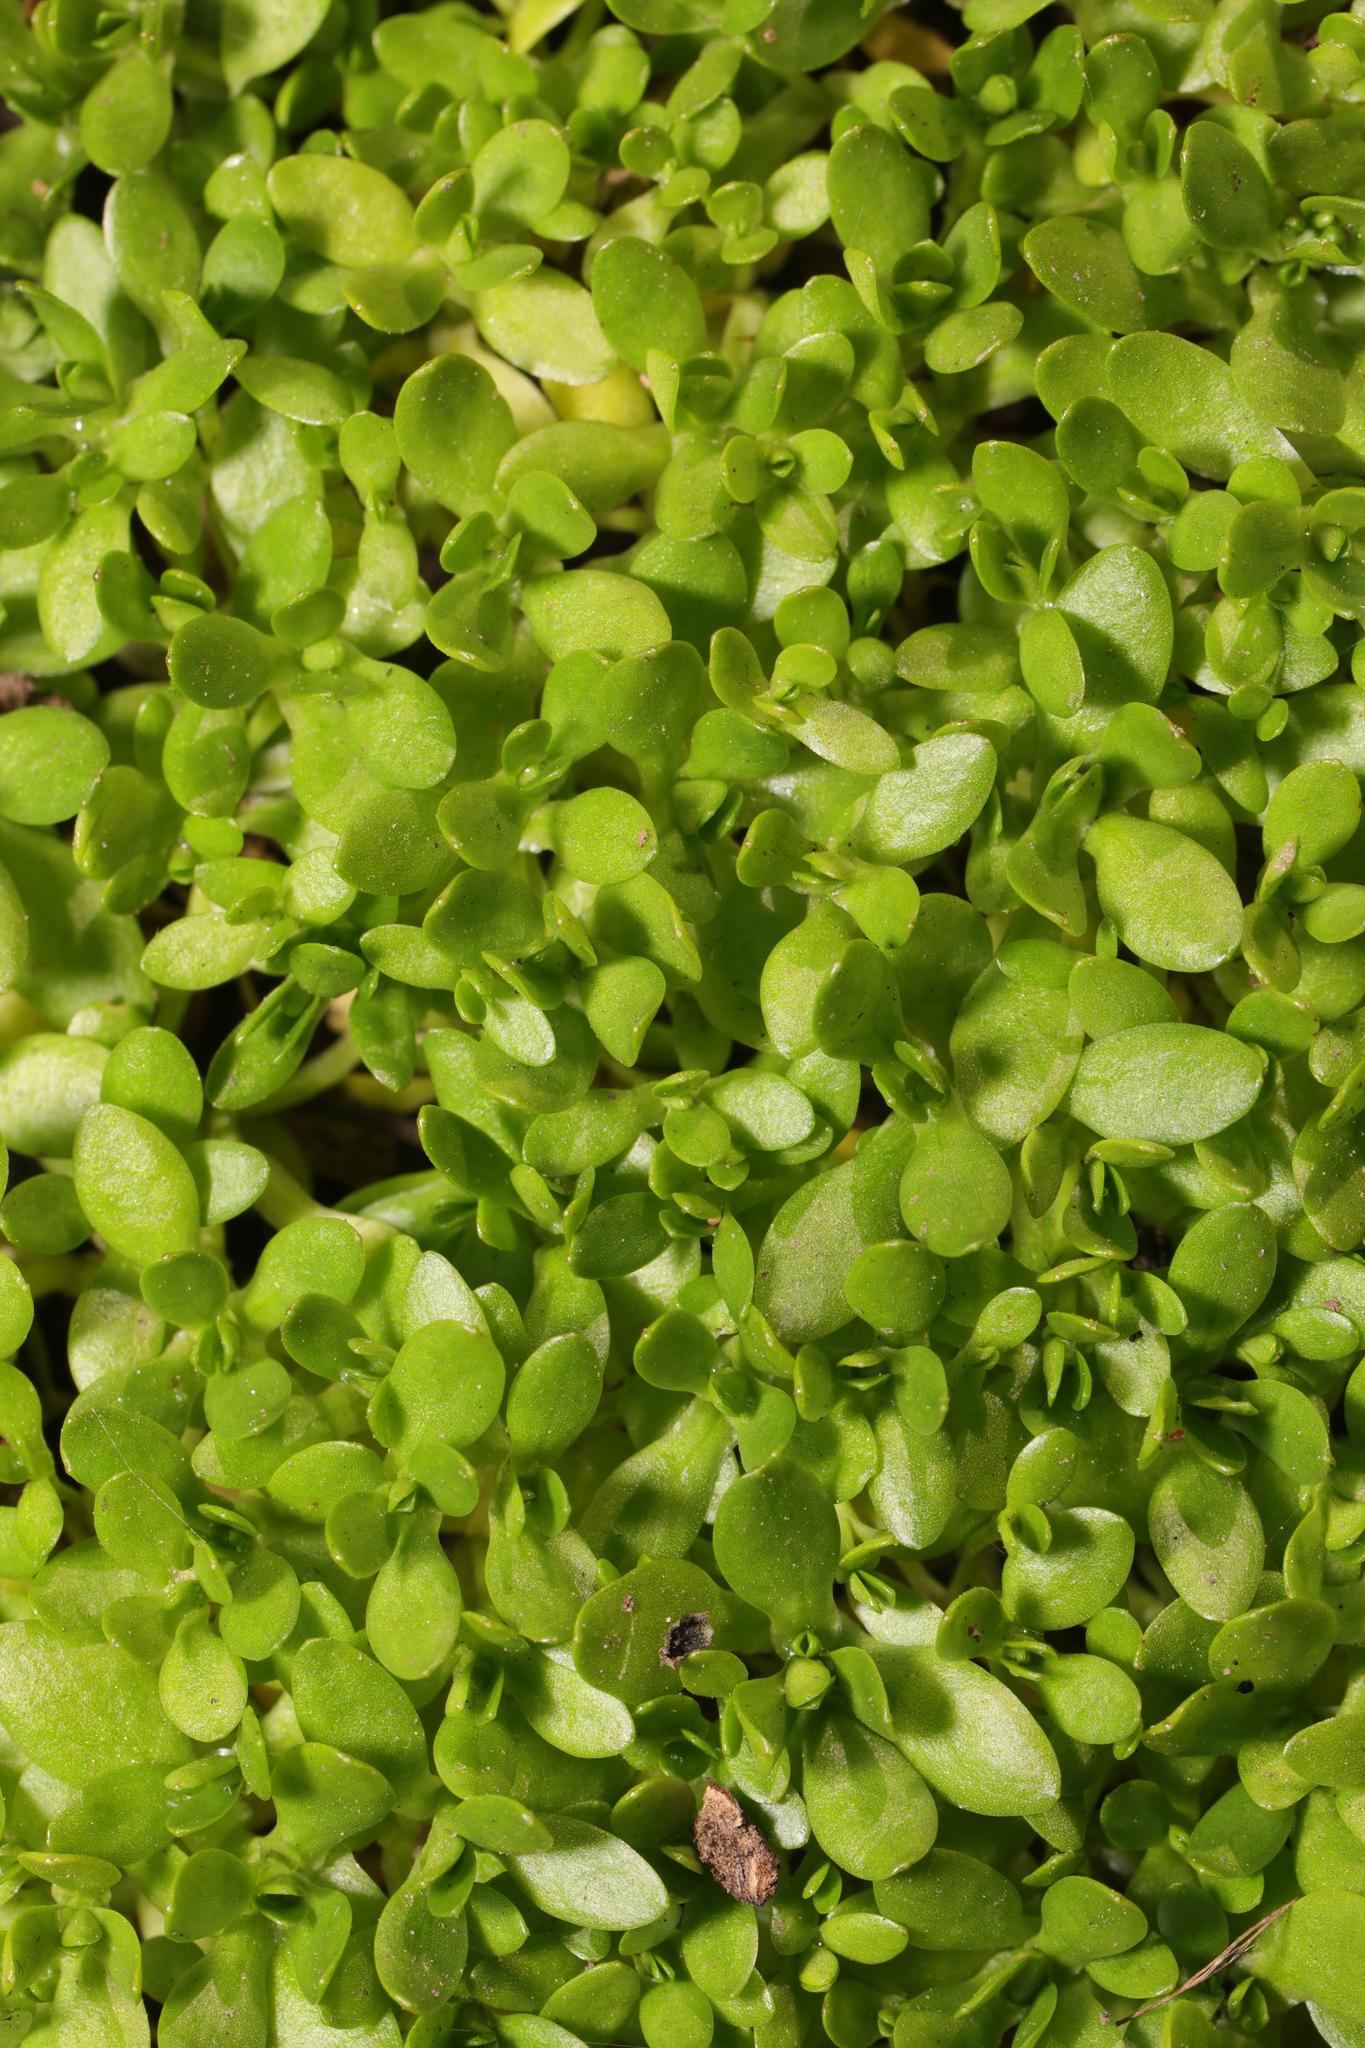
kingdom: Plantae
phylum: Tracheophyta
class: Magnoliopsida
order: Caryophyllales
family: Montiaceae
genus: Montia
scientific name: Montia fontana
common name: Blinks
